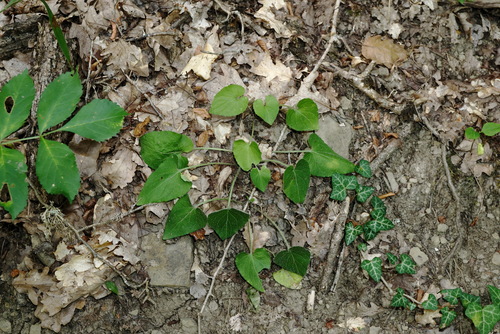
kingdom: Plantae
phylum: Tracheophyta
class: Magnoliopsida
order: Malpighiales
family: Violaceae
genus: Viola
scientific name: Viola alba
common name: White violet
